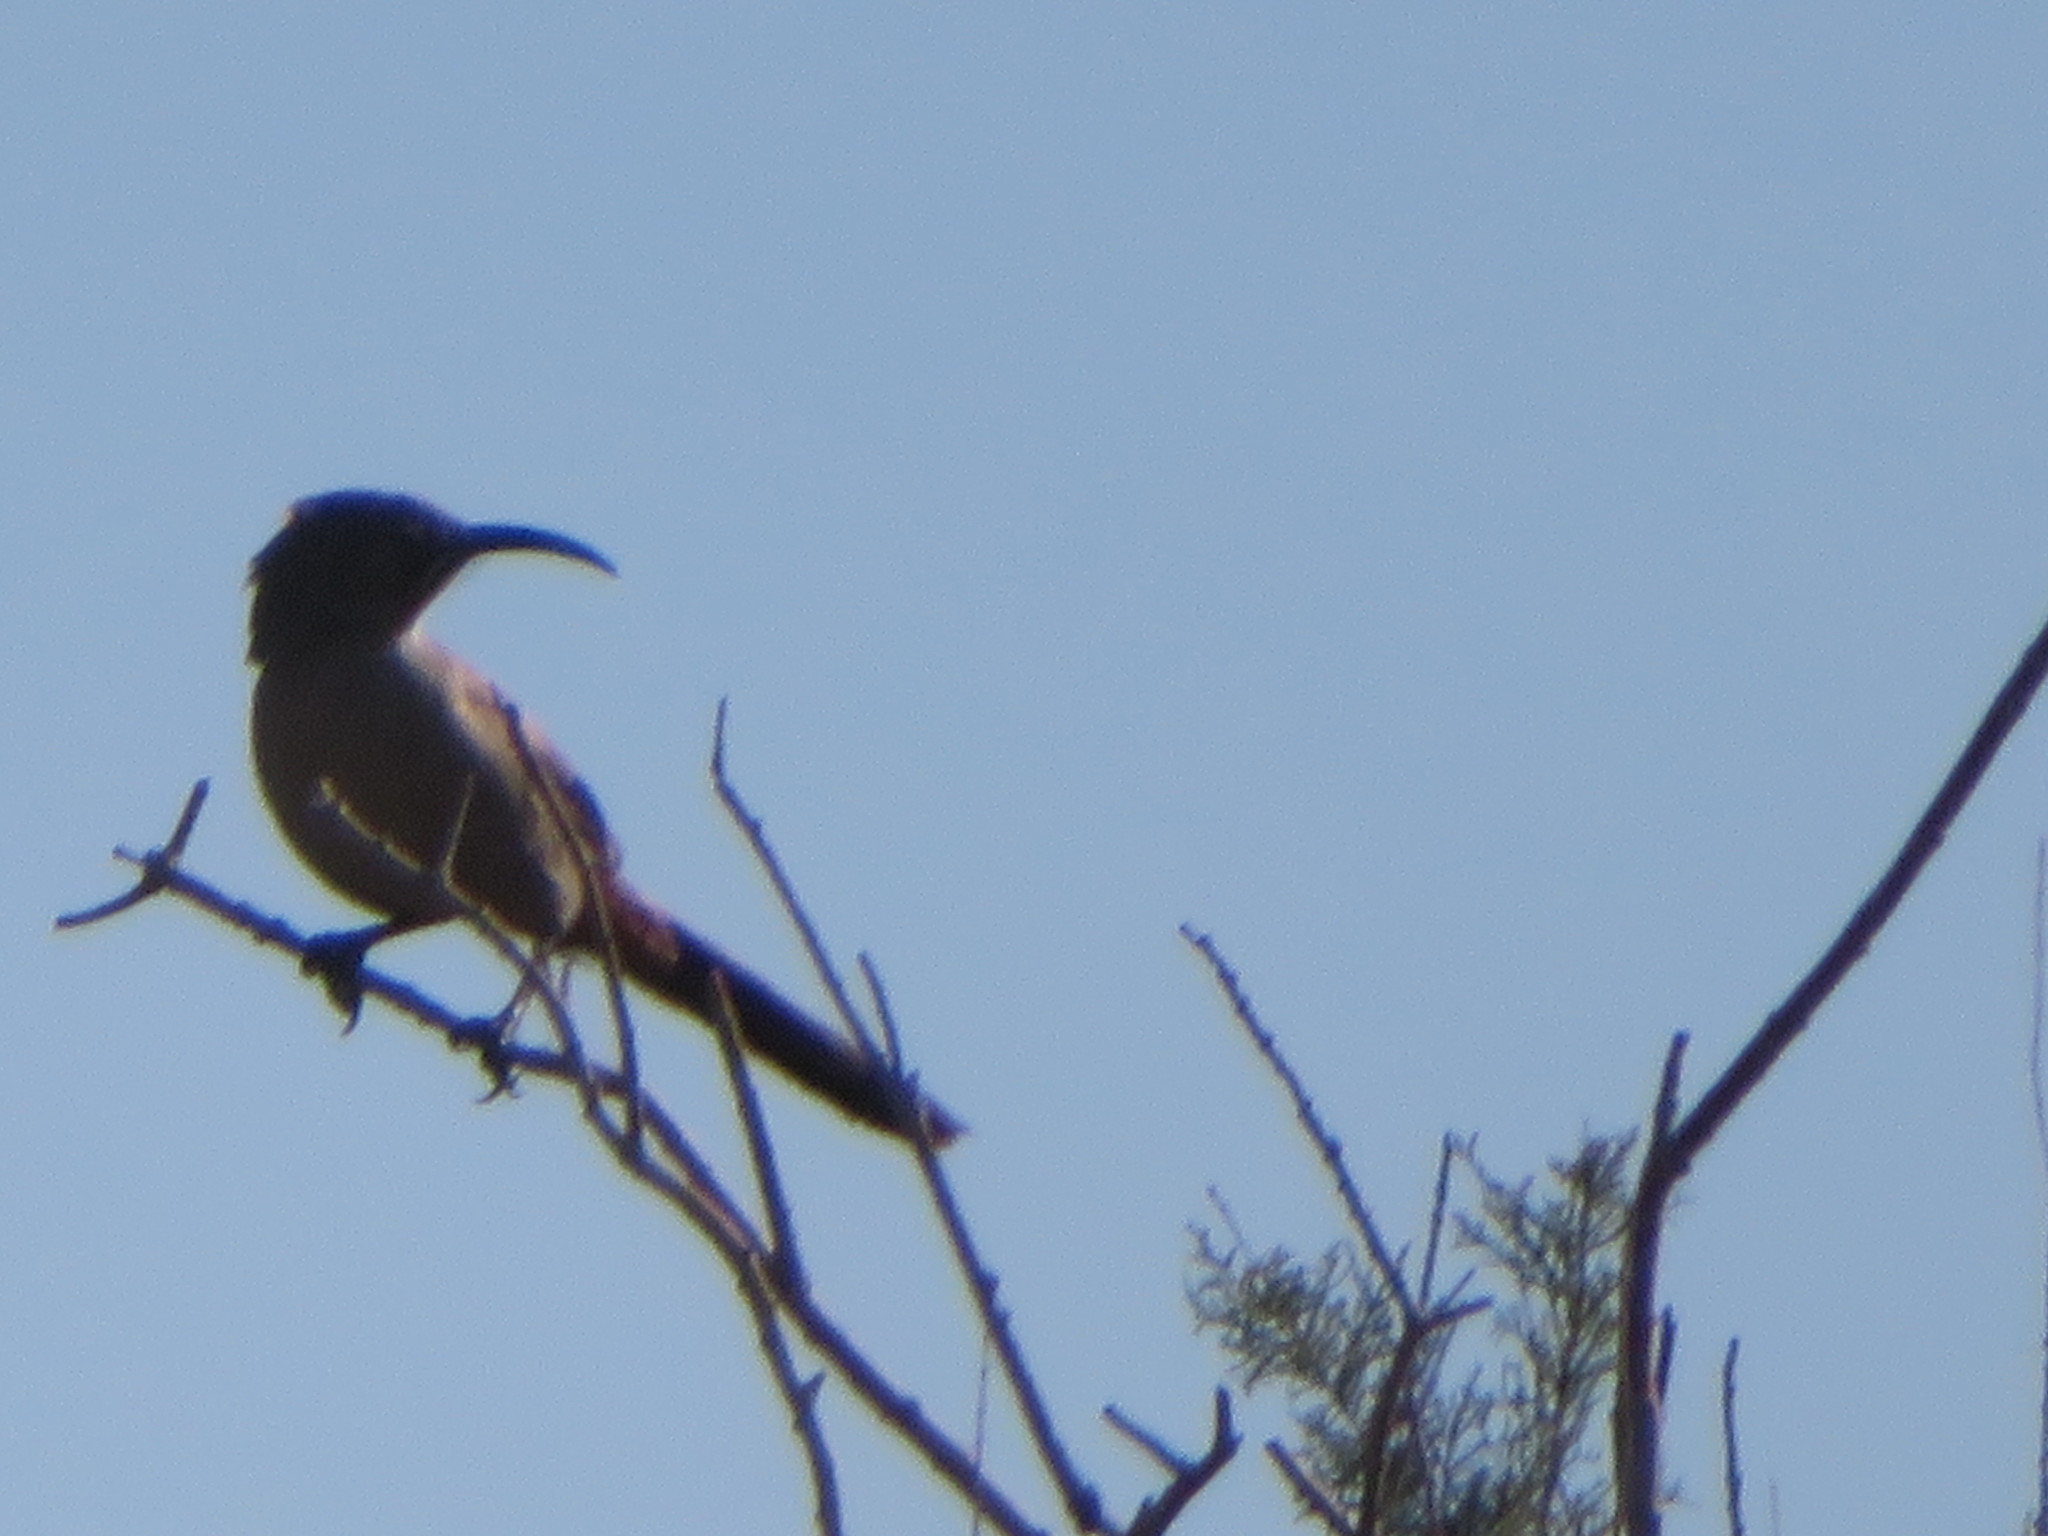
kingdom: Animalia
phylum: Chordata
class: Aves
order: Passeriformes
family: Mimidae
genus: Toxostoma
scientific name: Toxostoma crissale
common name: Crissal thrasher
